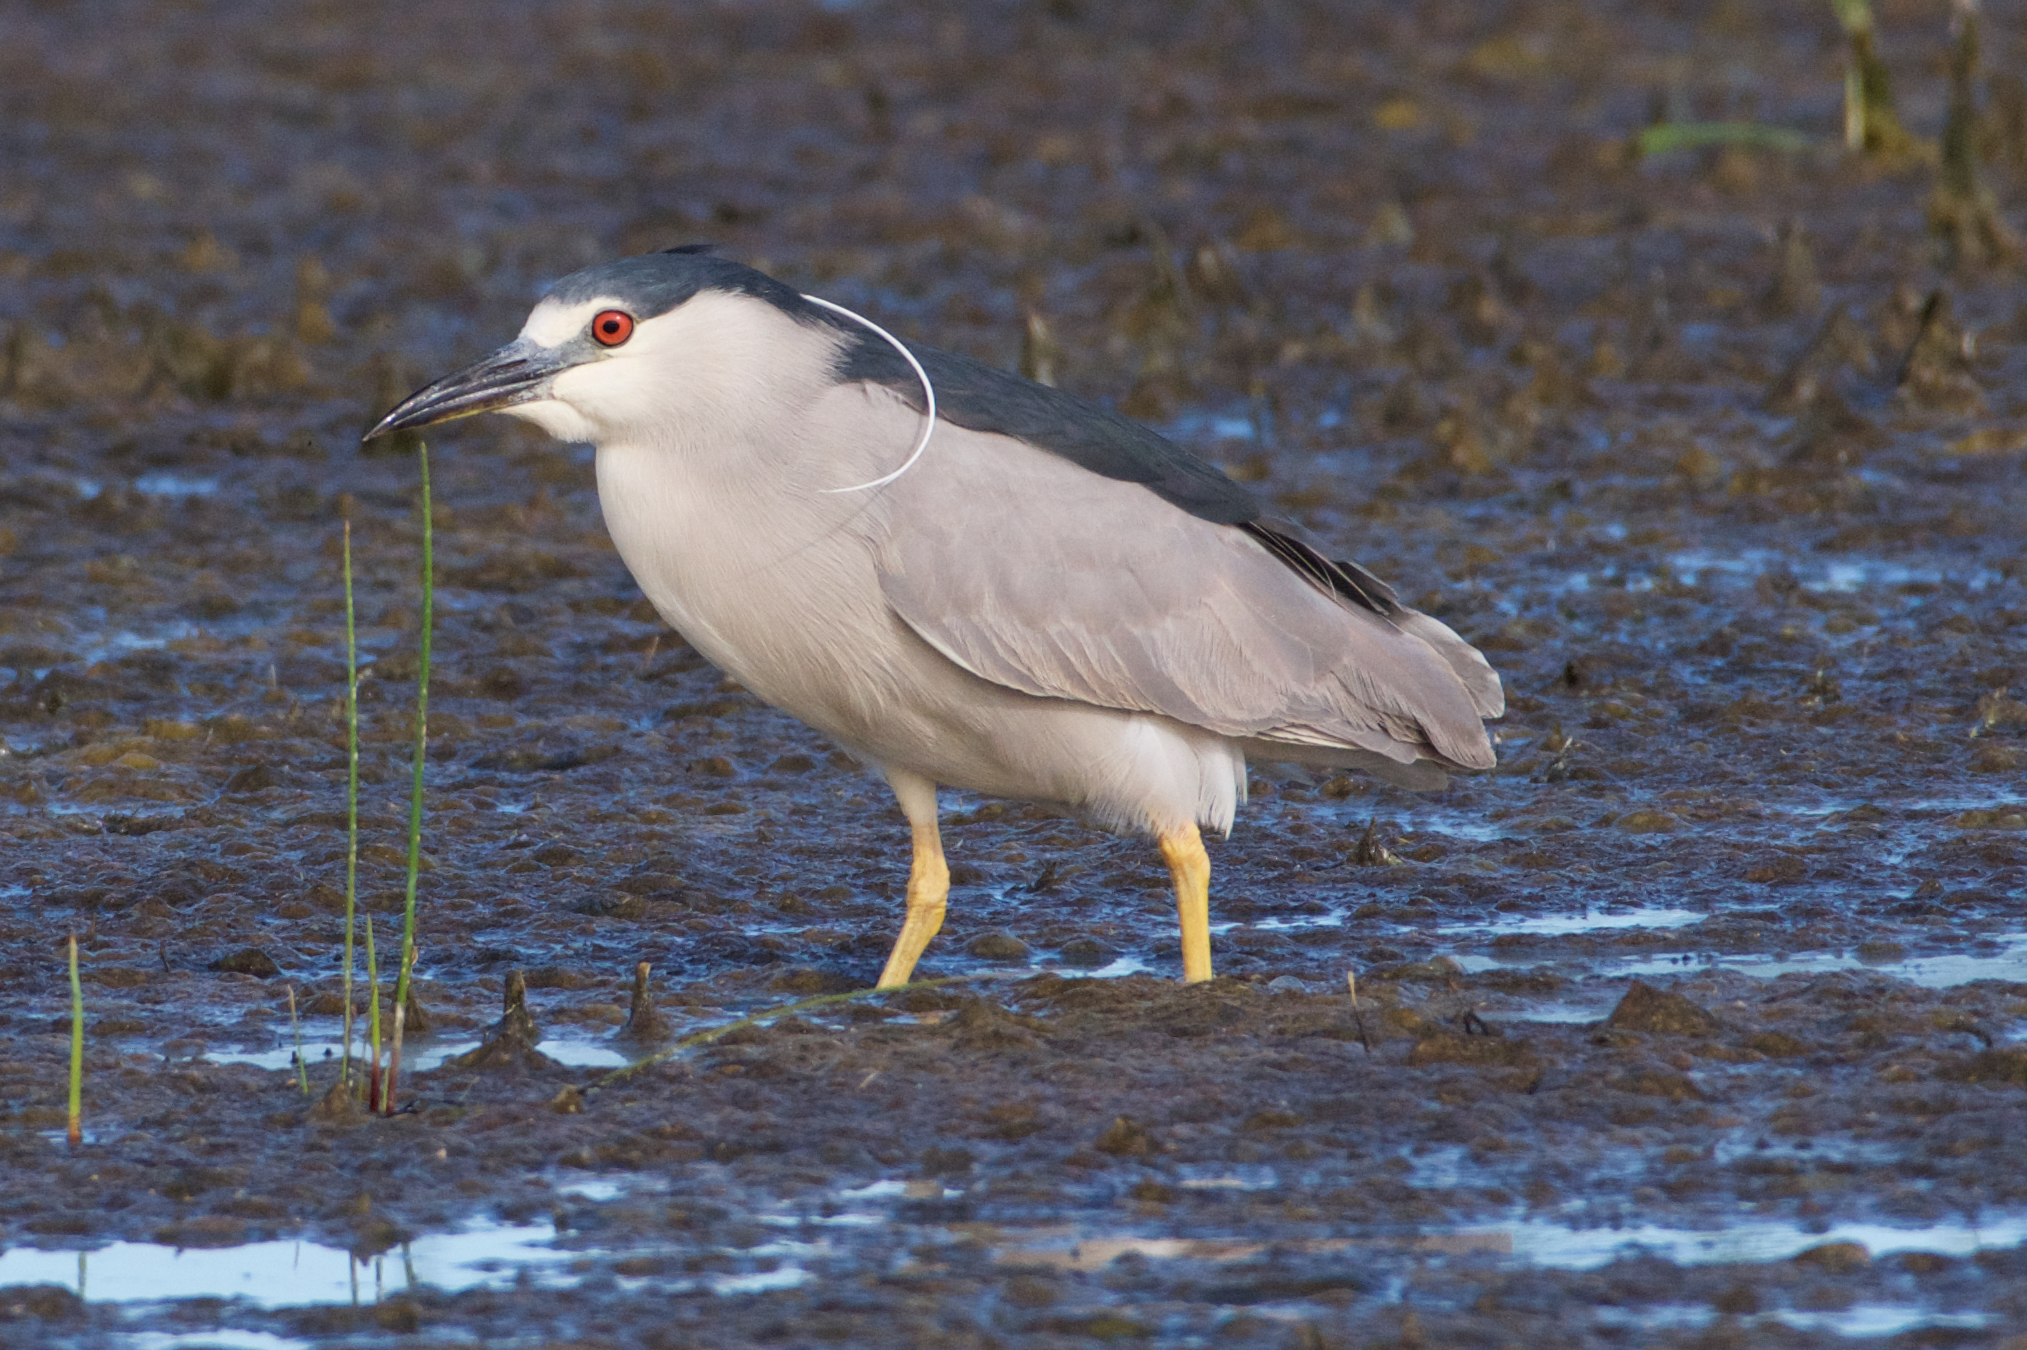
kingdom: Animalia
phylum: Chordata
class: Aves
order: Pelecaniformes
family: Ardeidae
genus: Nycticorax
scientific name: Nycticorax nycticorax
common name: Black-crowned night heron
